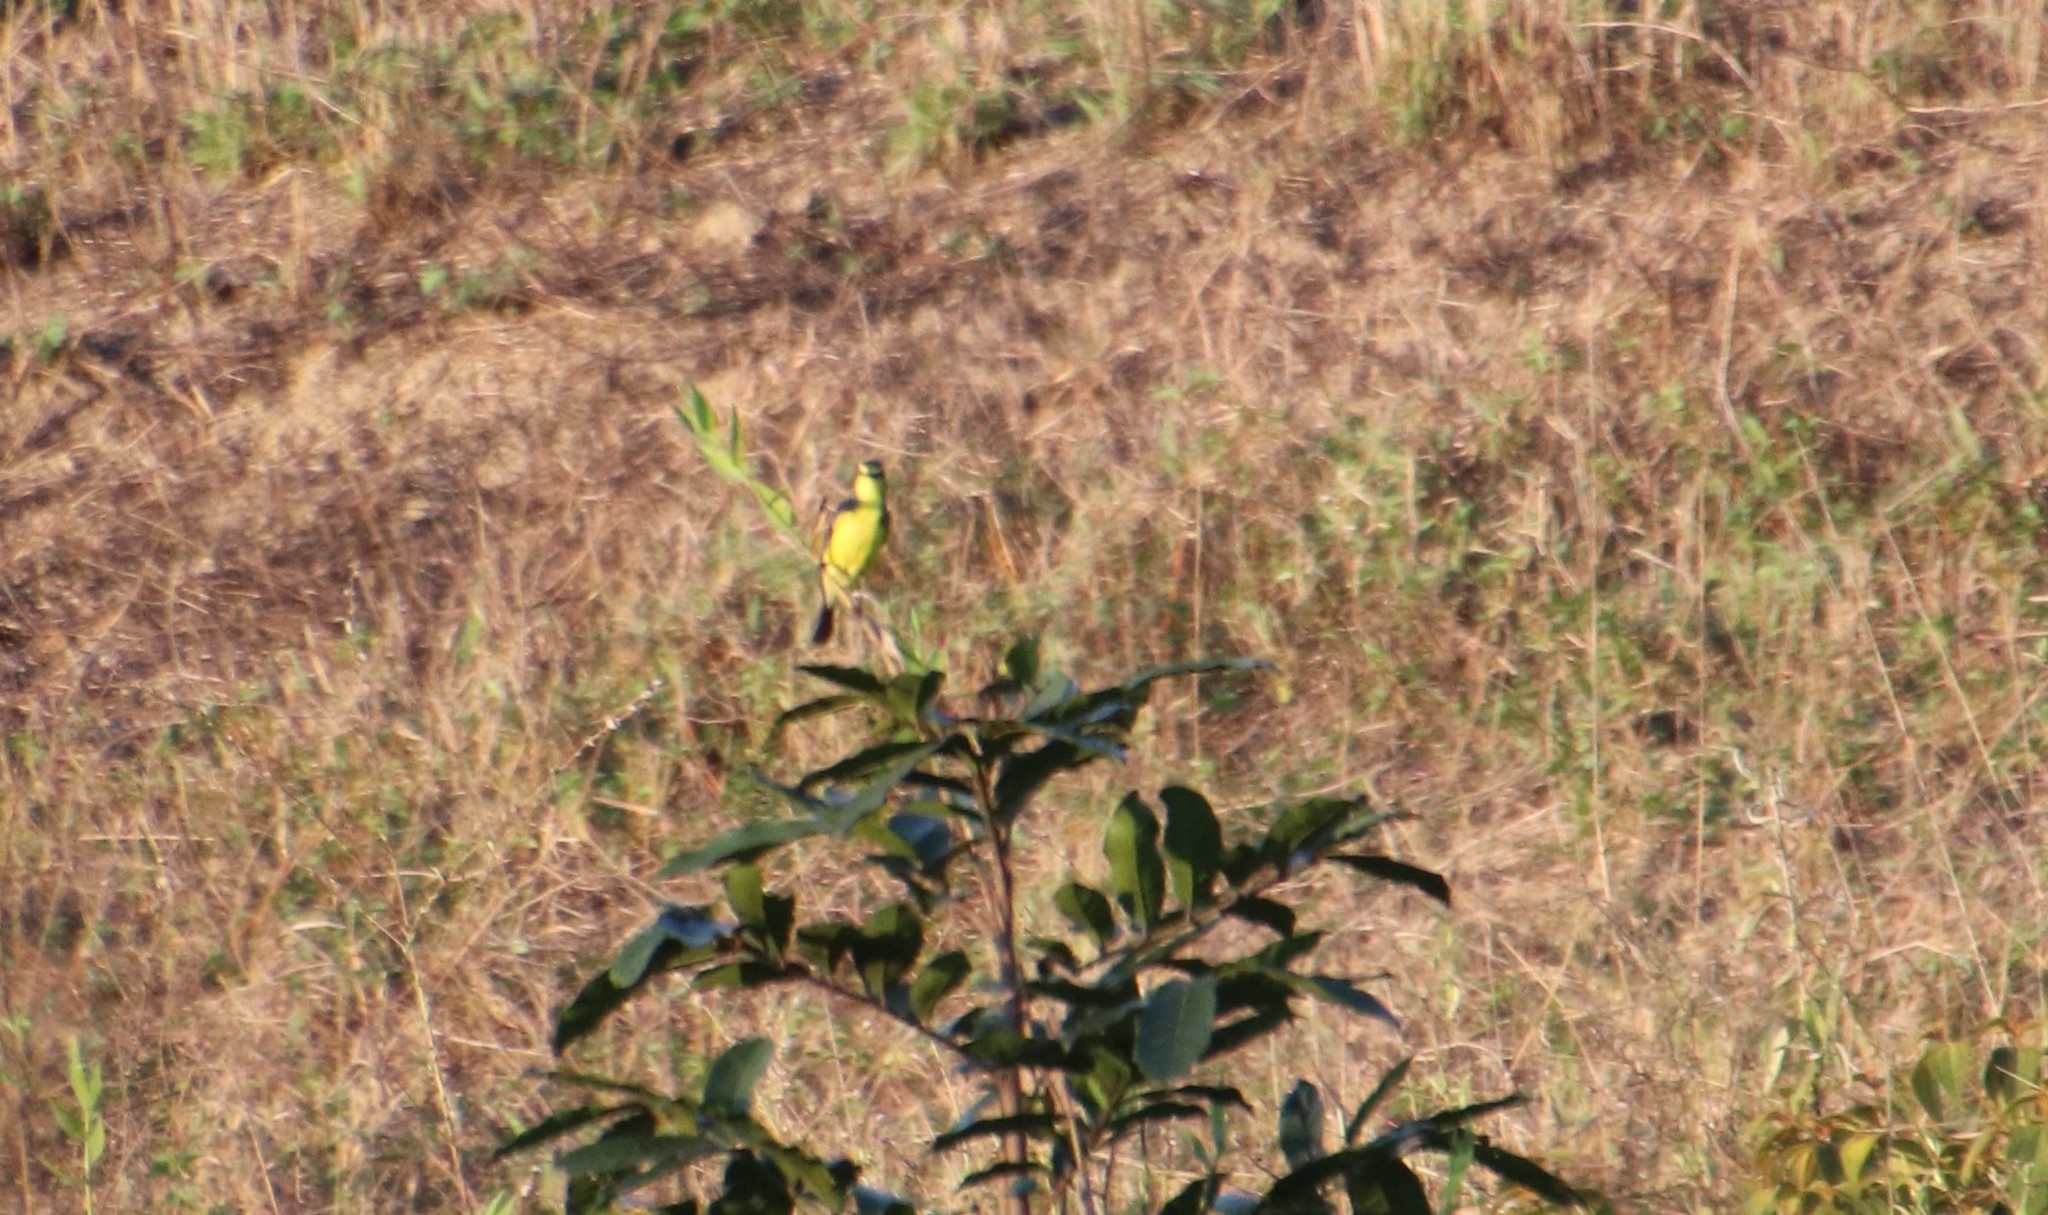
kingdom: Animalia
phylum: Chordata
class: Aves
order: Passeriformes
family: Tyrannidae
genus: Satrapa
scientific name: Satrapa icterophrys
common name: Yellow-browed tyrant
